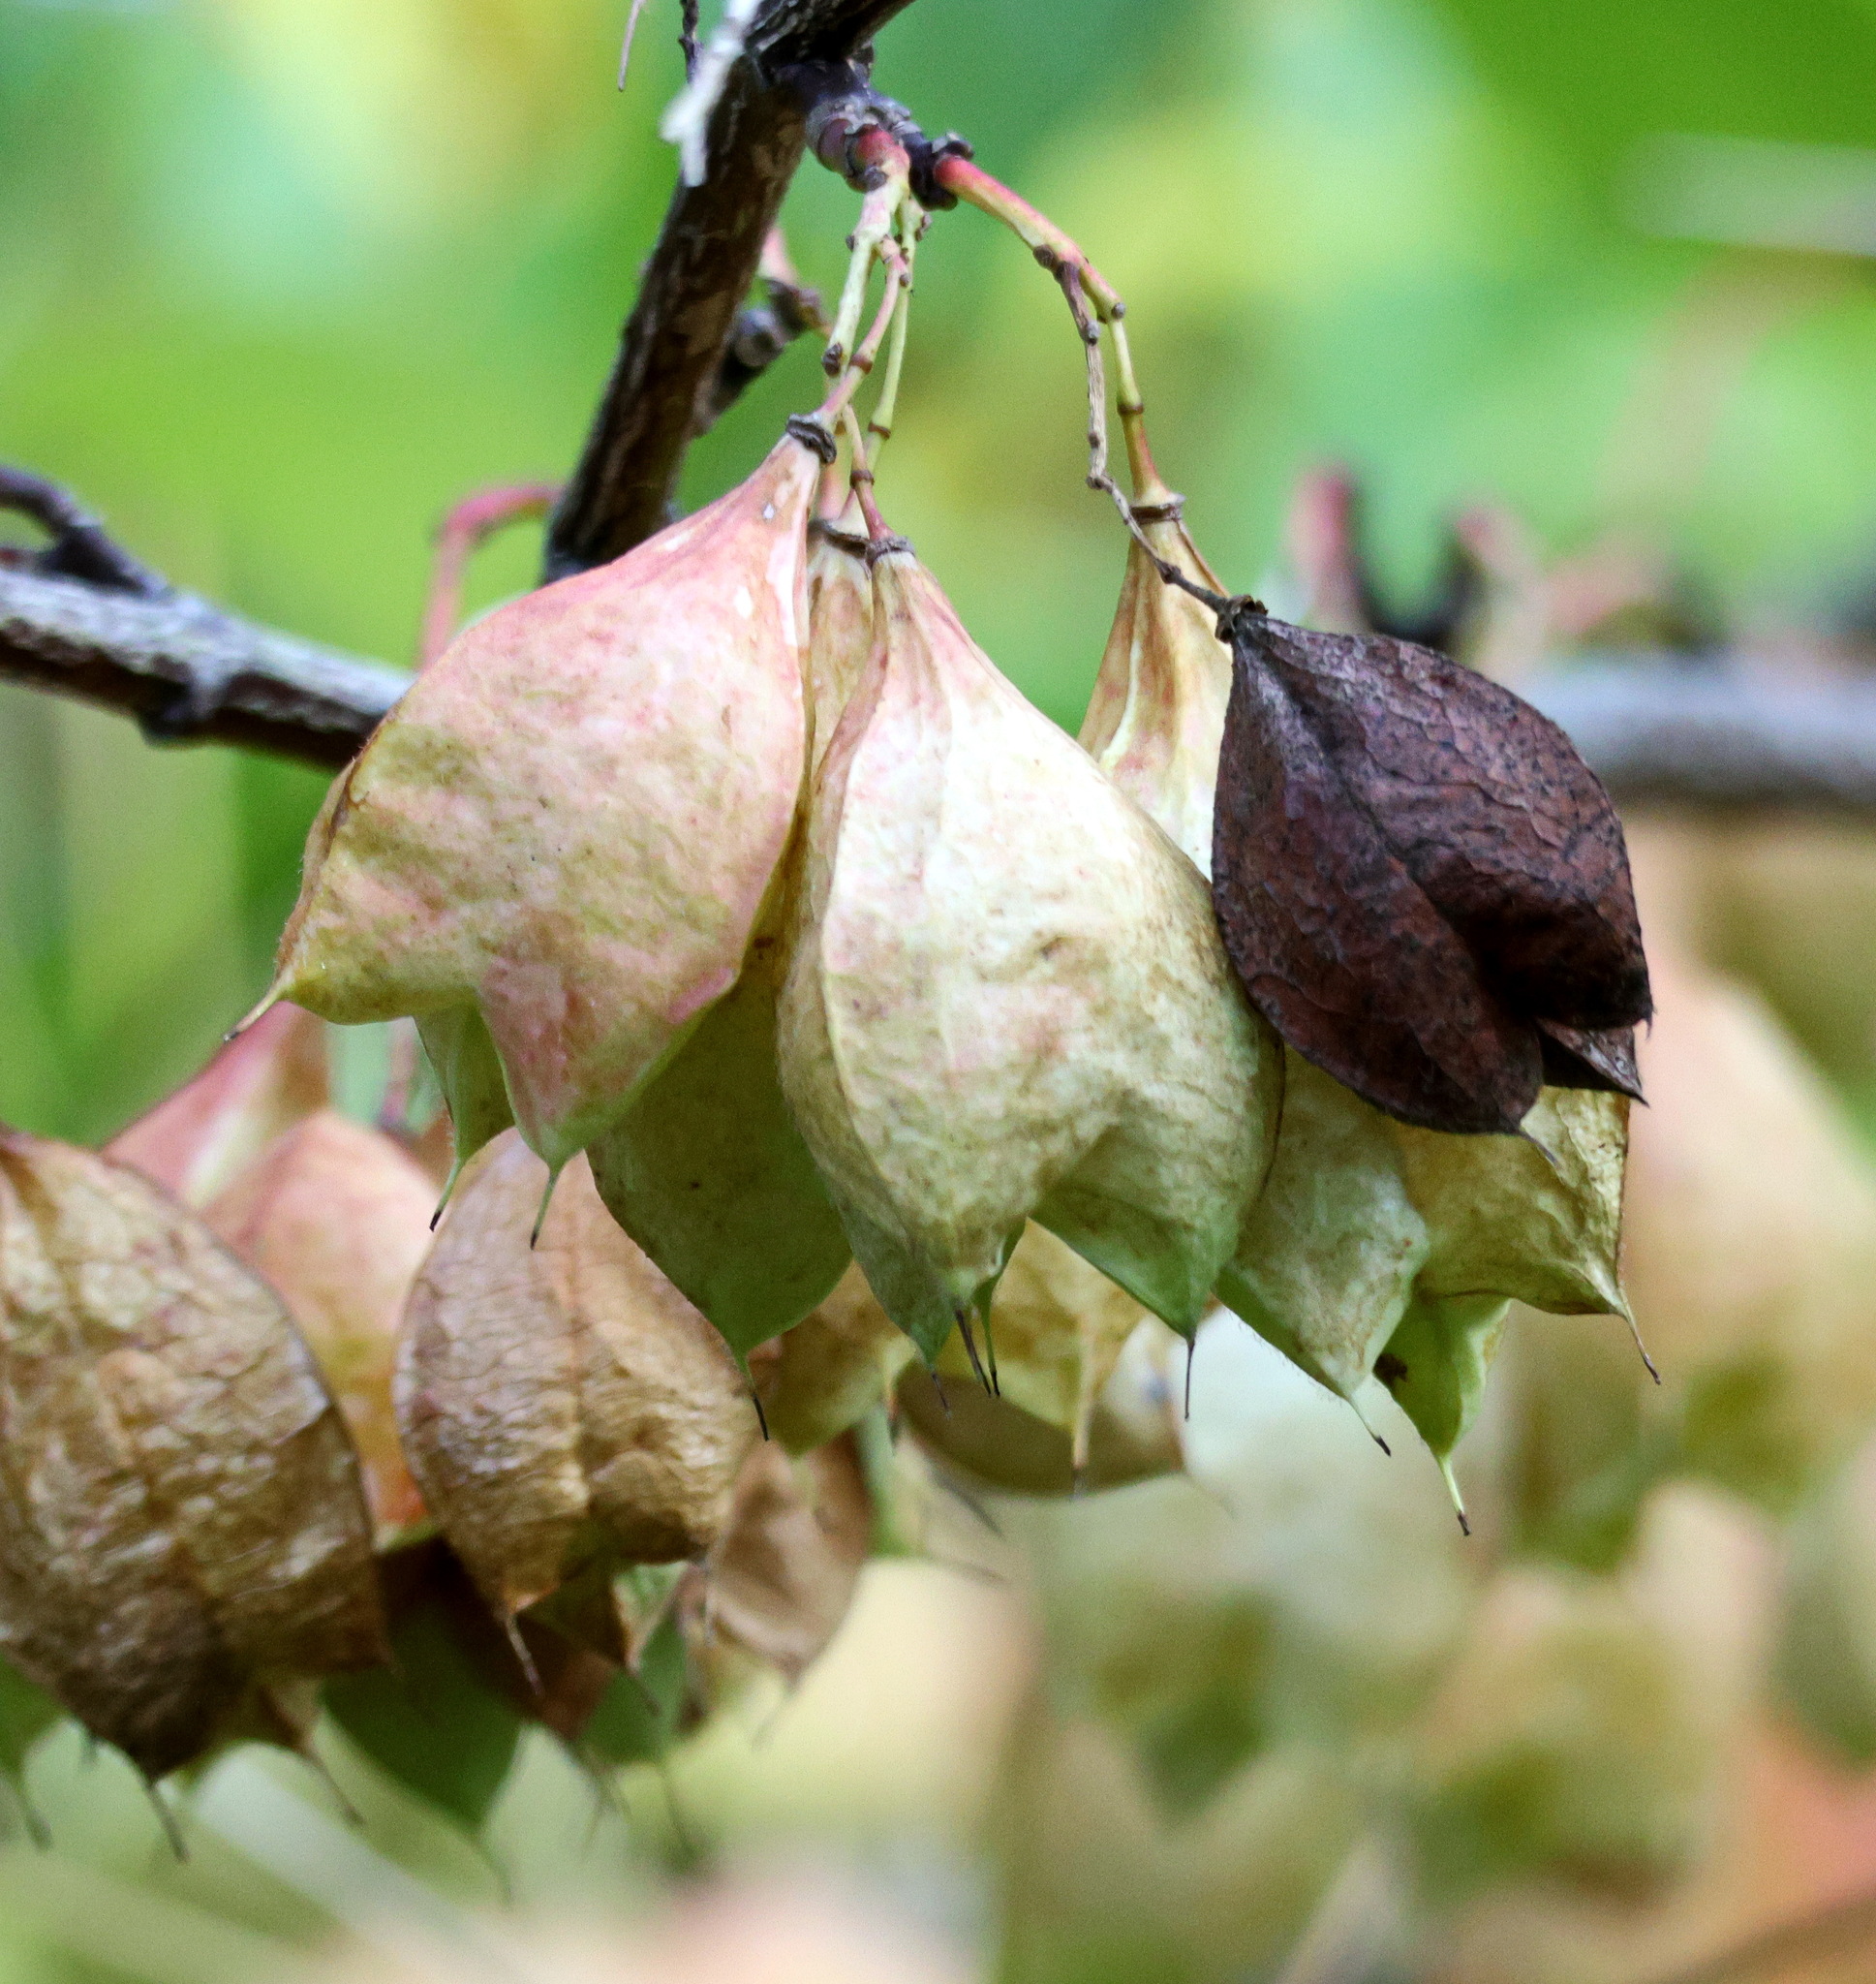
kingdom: Plantae
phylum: Tracheophyta
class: Magnoliopsida
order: Crossosomatales
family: Staphyleaceae
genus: Staphylea
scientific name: Staphylea trifolia
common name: American bladdernut
